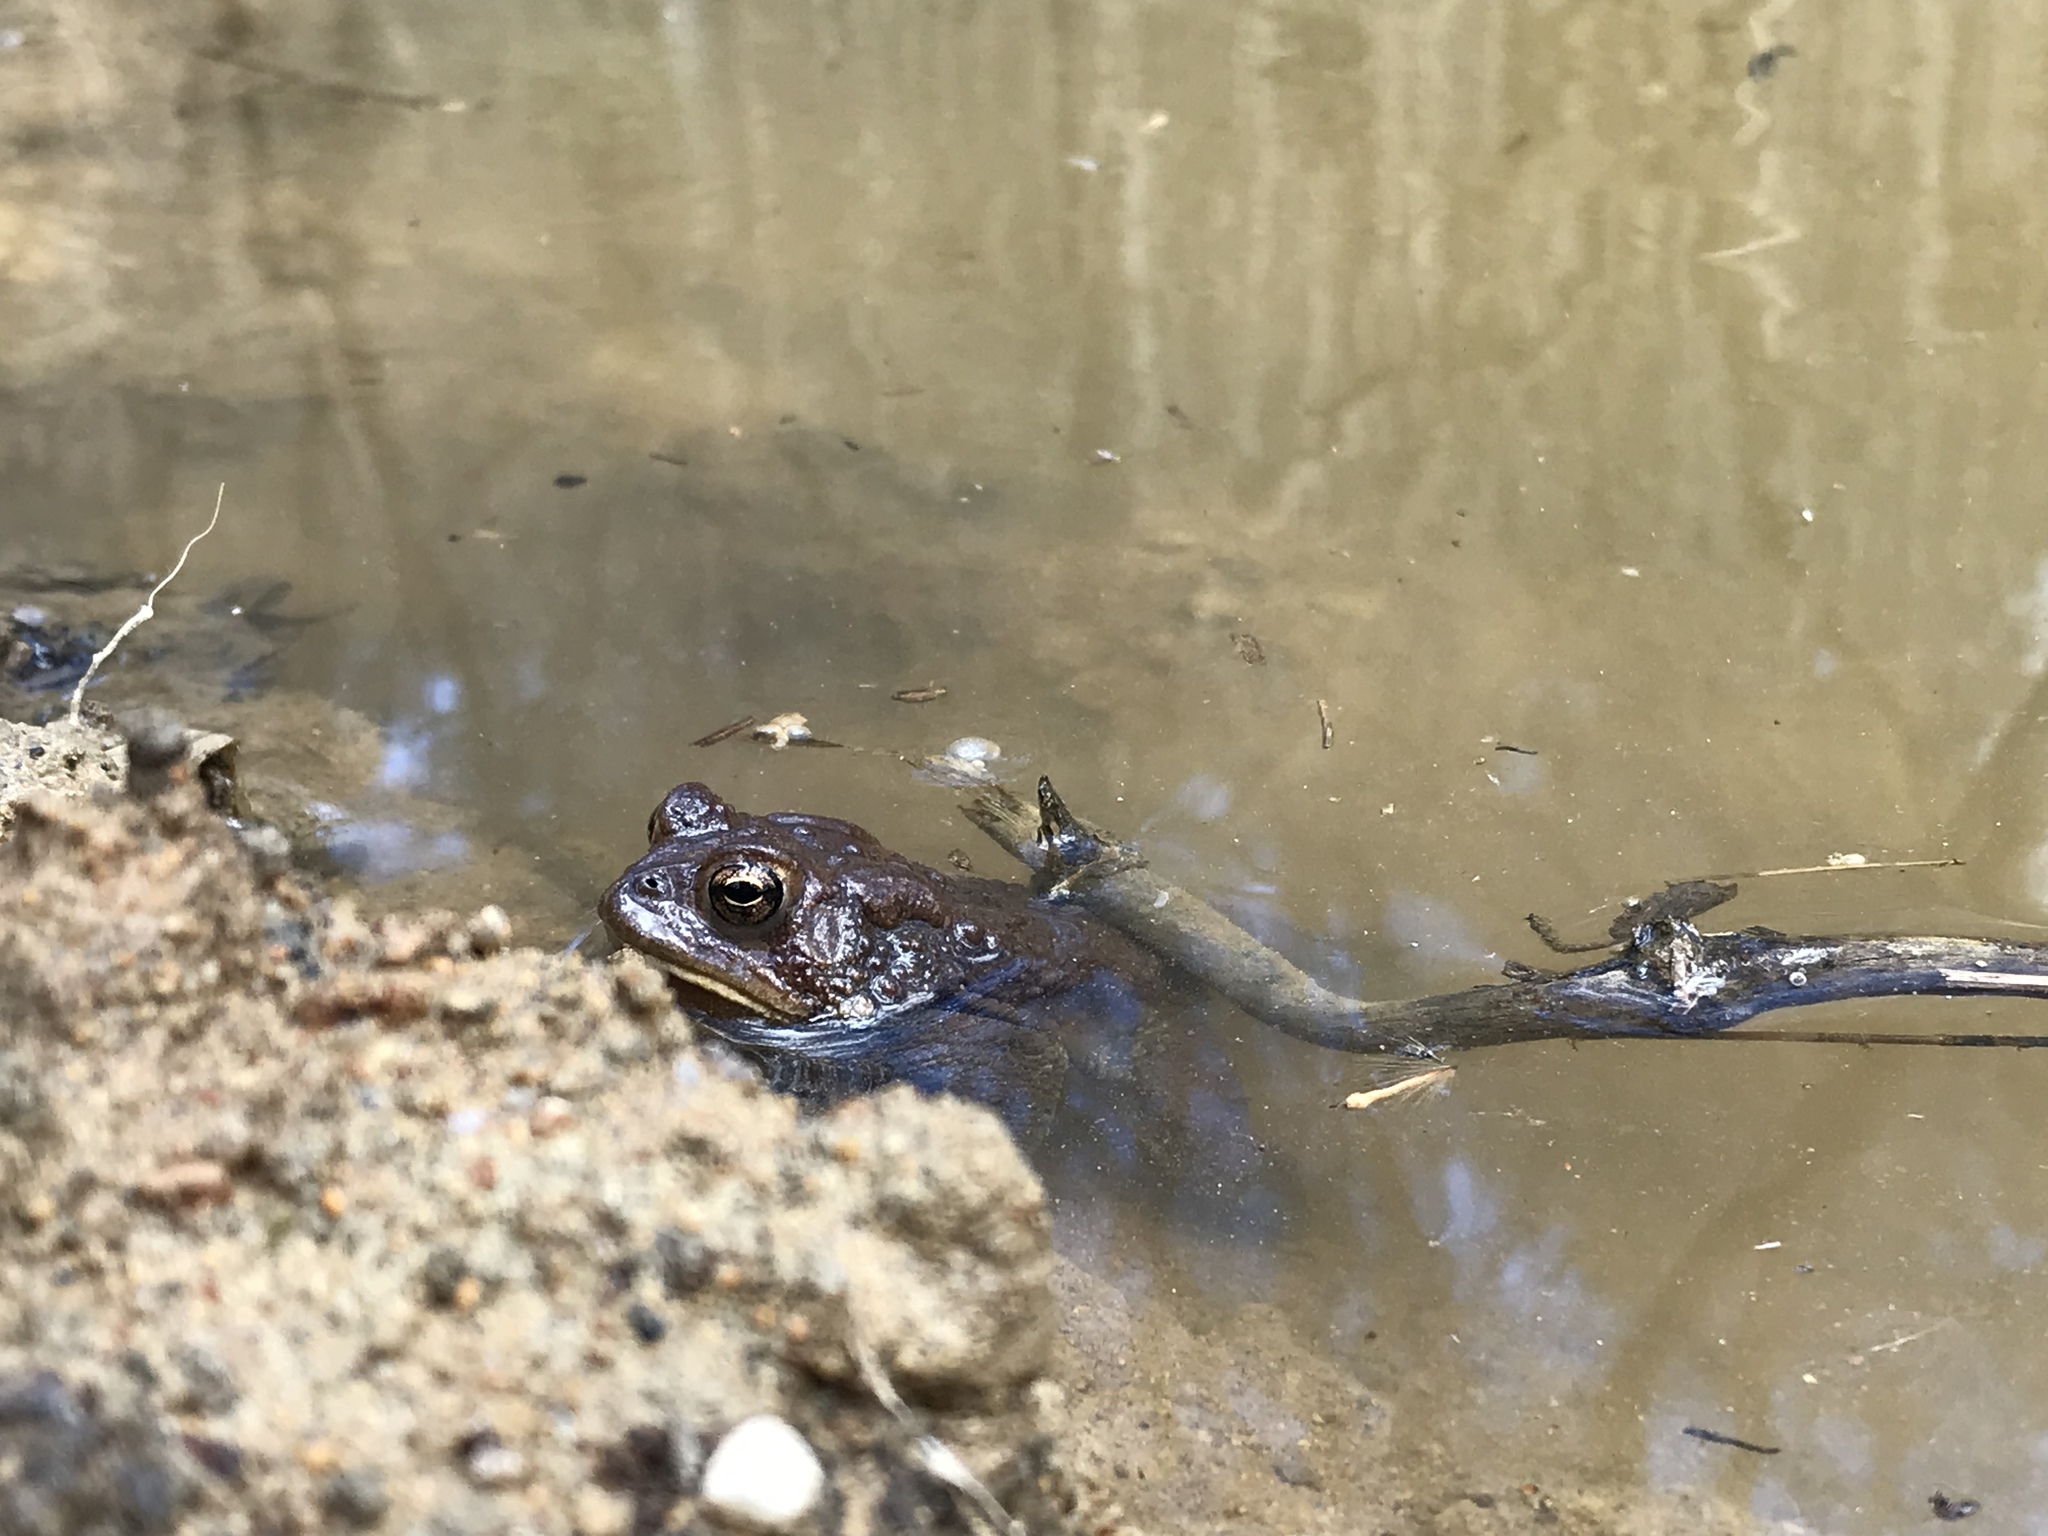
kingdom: Animalia
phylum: Chordata
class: Amphibia
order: Anura
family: Bufonidae
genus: Anaxyrus
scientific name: Anaxyrus americanus
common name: American toad
